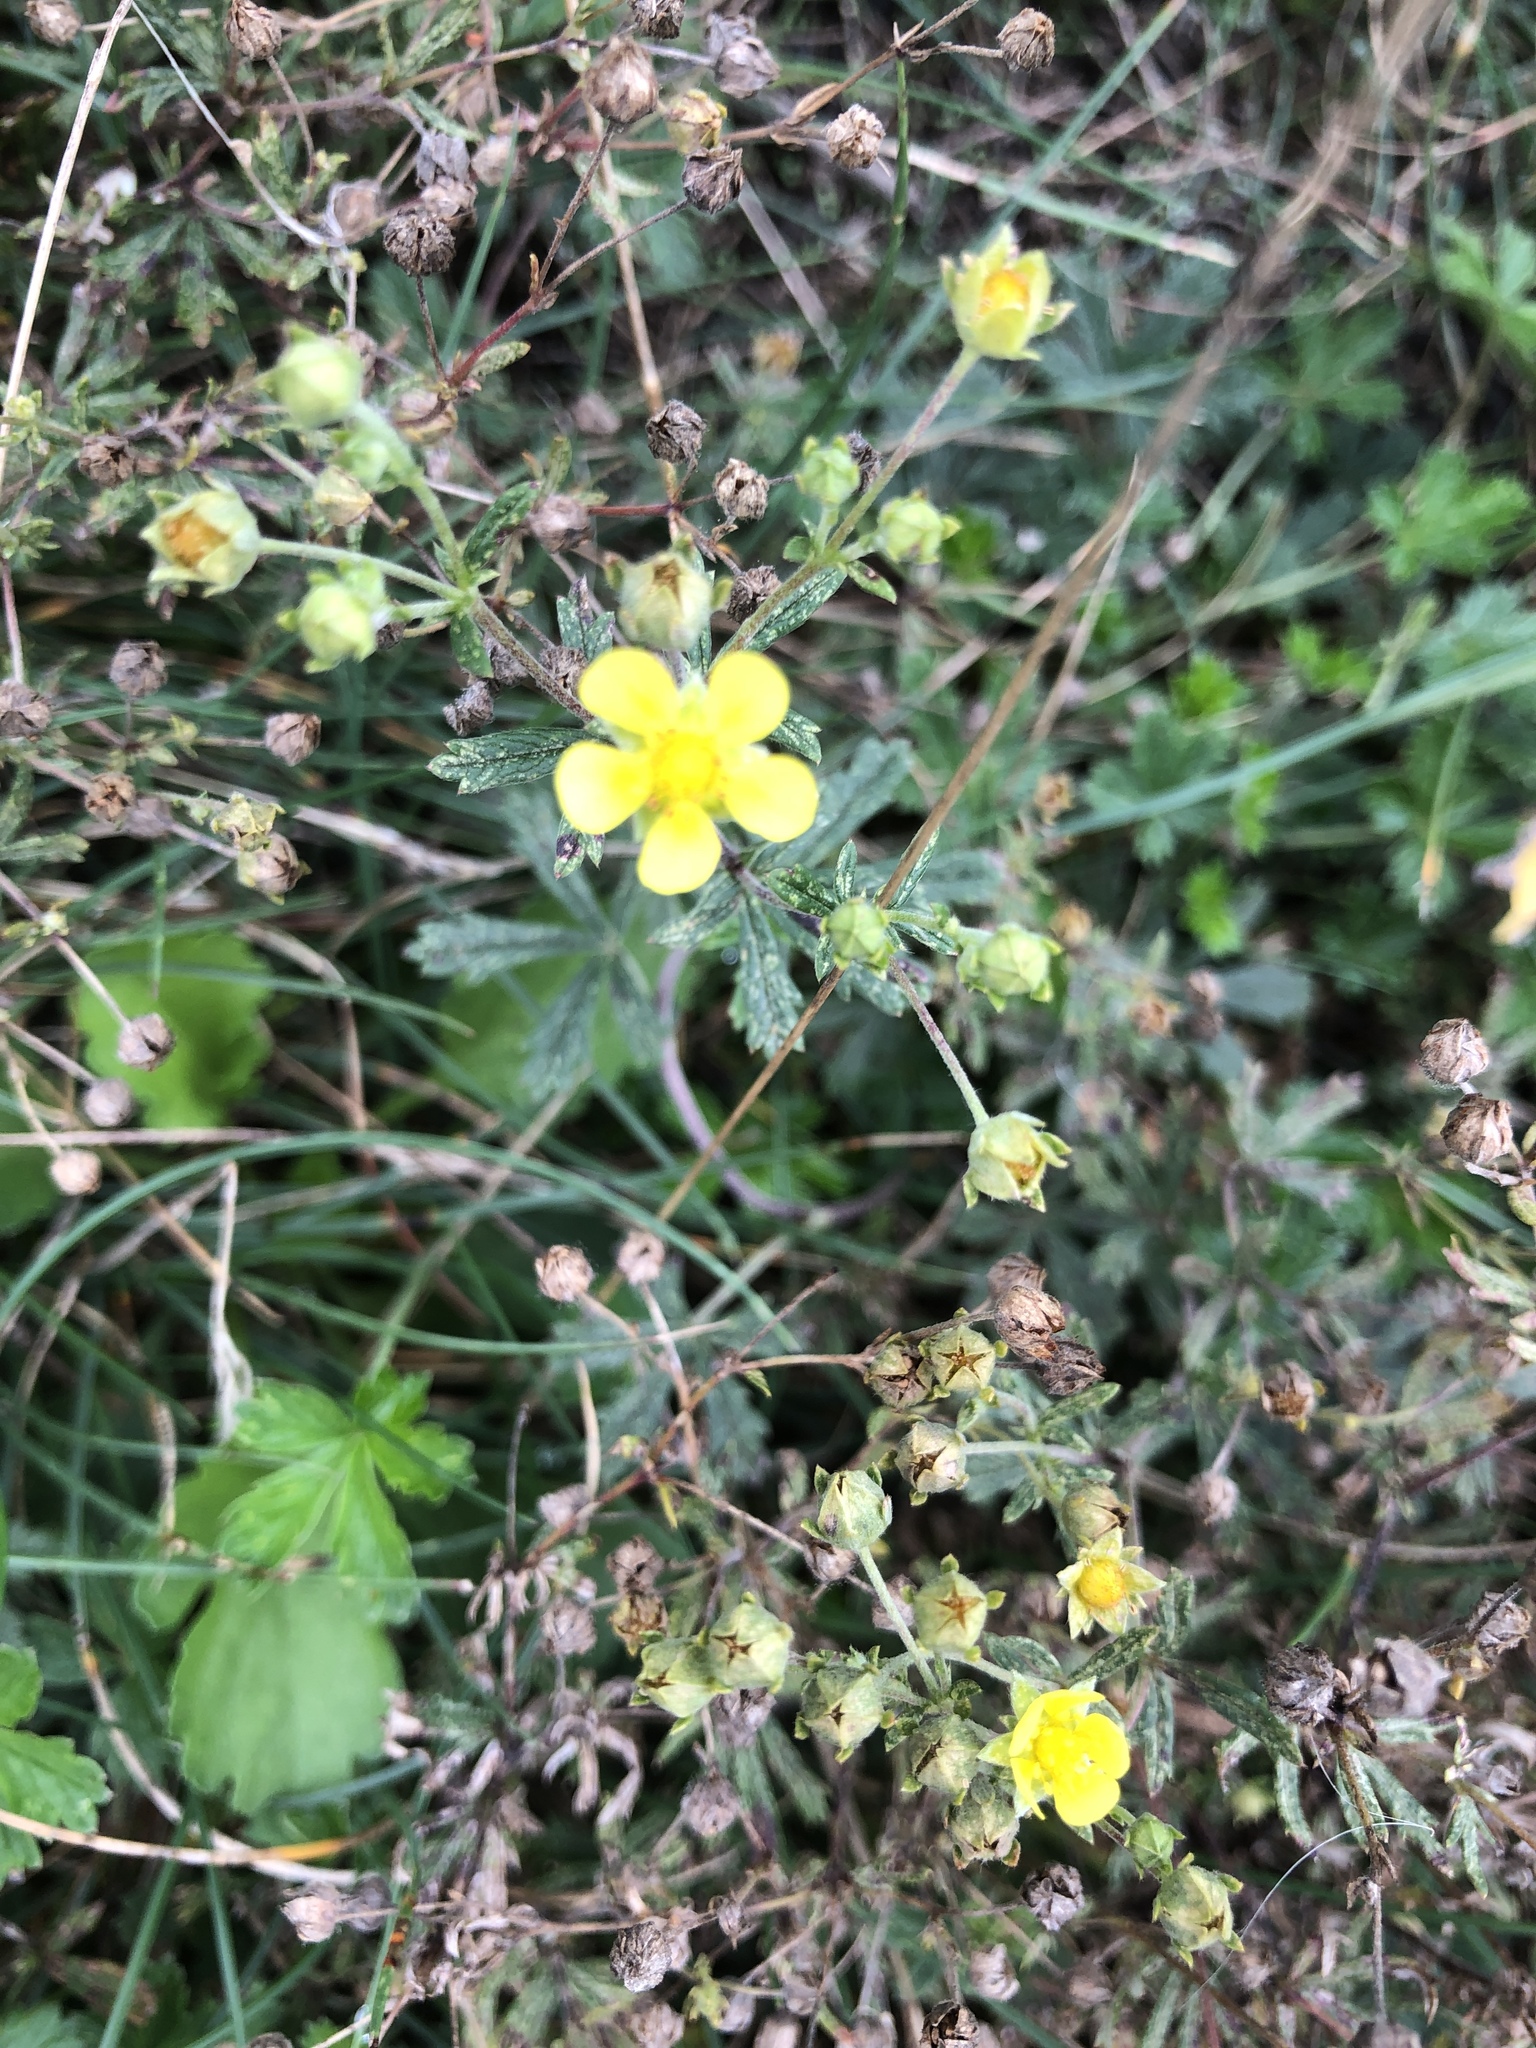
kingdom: Plantae
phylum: Tracheophyta
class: Magnoliopsida
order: Rosales
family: Rosaceae
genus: Potentilla
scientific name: Potentilla argentea
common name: Hoary cinquefoil
